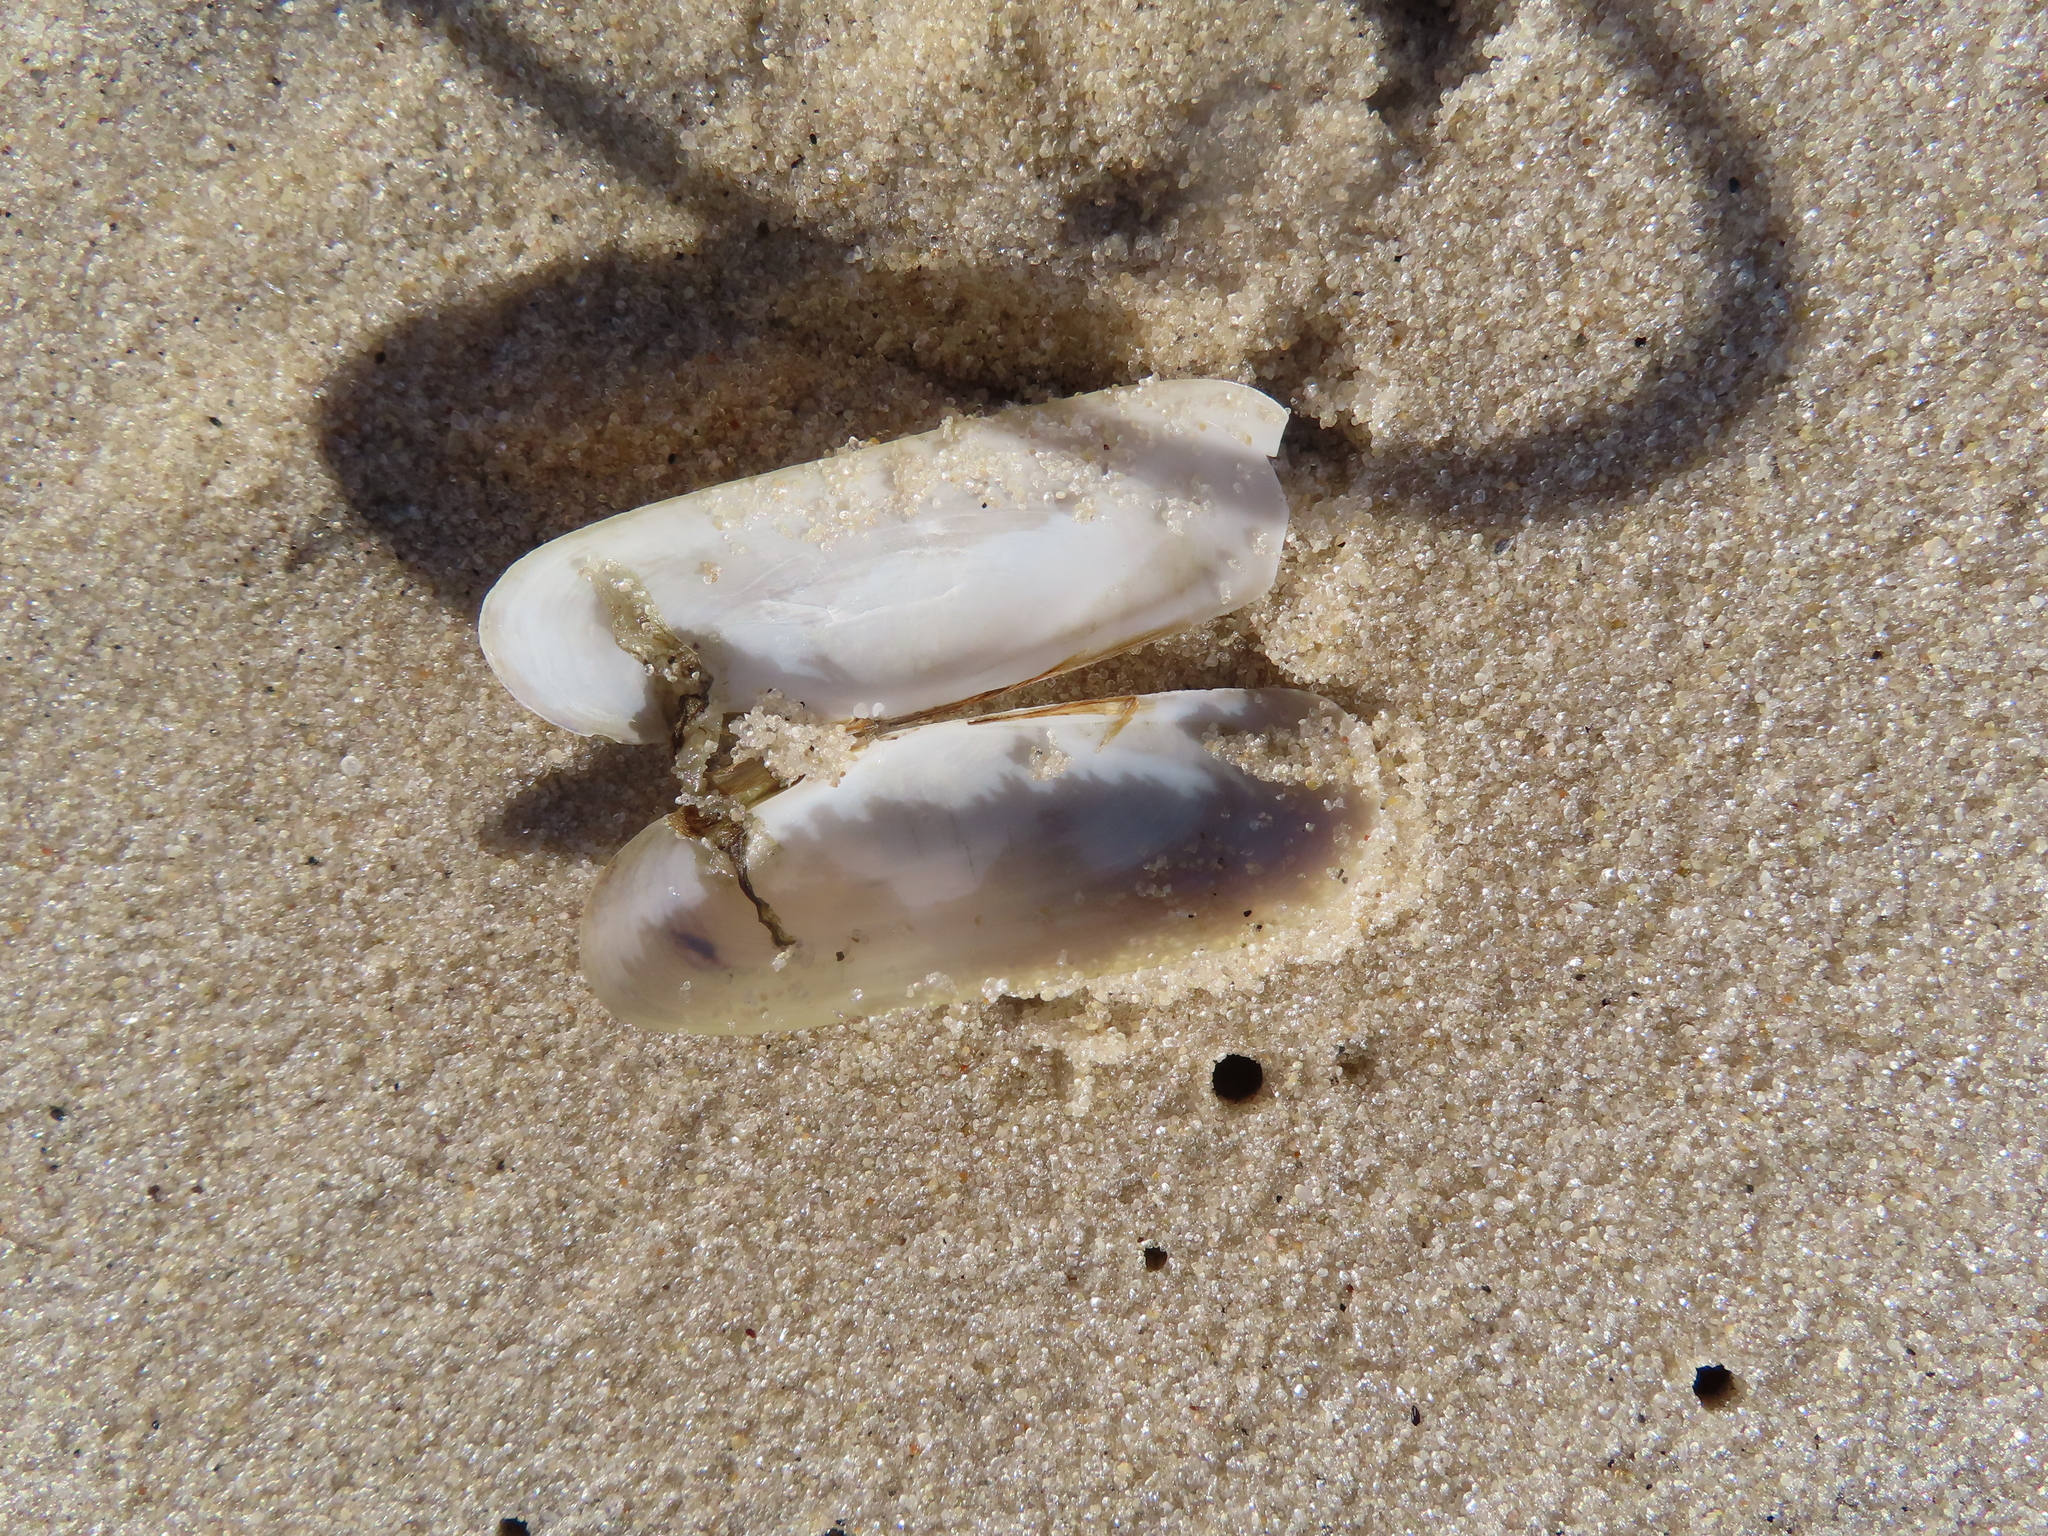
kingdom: Animalia
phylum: Mollusca
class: Bivalvia
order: Cardiida
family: Solecurtidae
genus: Tagelus
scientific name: Tagelus plebeius
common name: Stout tagelus
